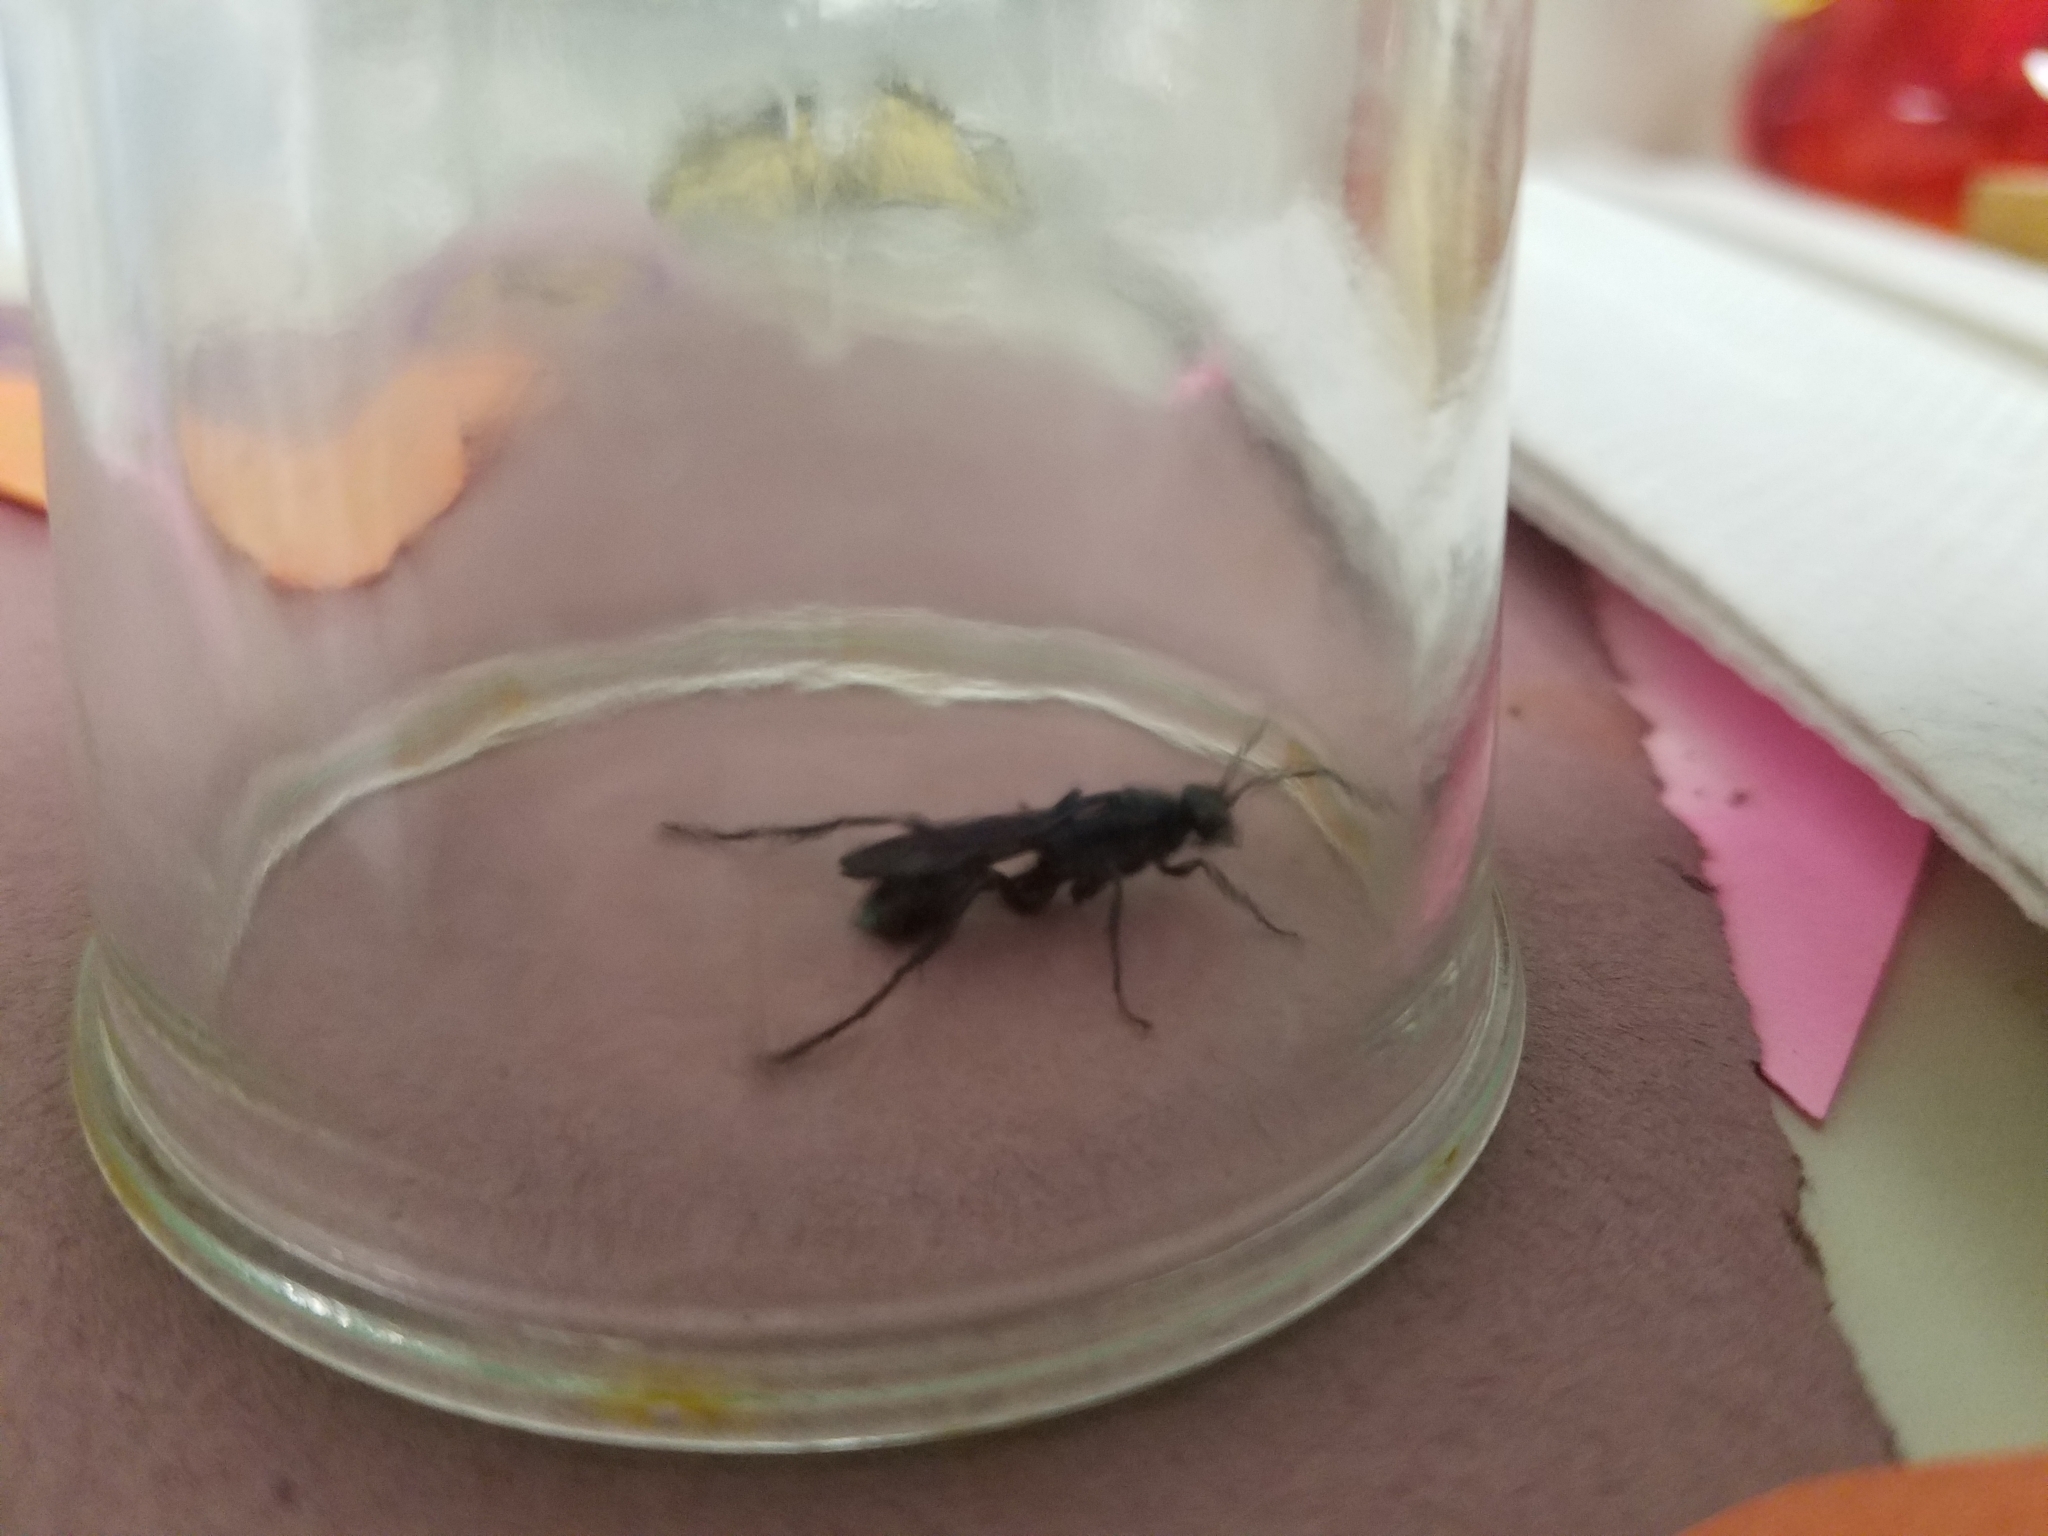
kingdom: Animalia
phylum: Arthropoda
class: Insecta
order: Hymenoptera
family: Sphecidae
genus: Chalybion
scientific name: Chalybion californicum
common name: Mud dauber
